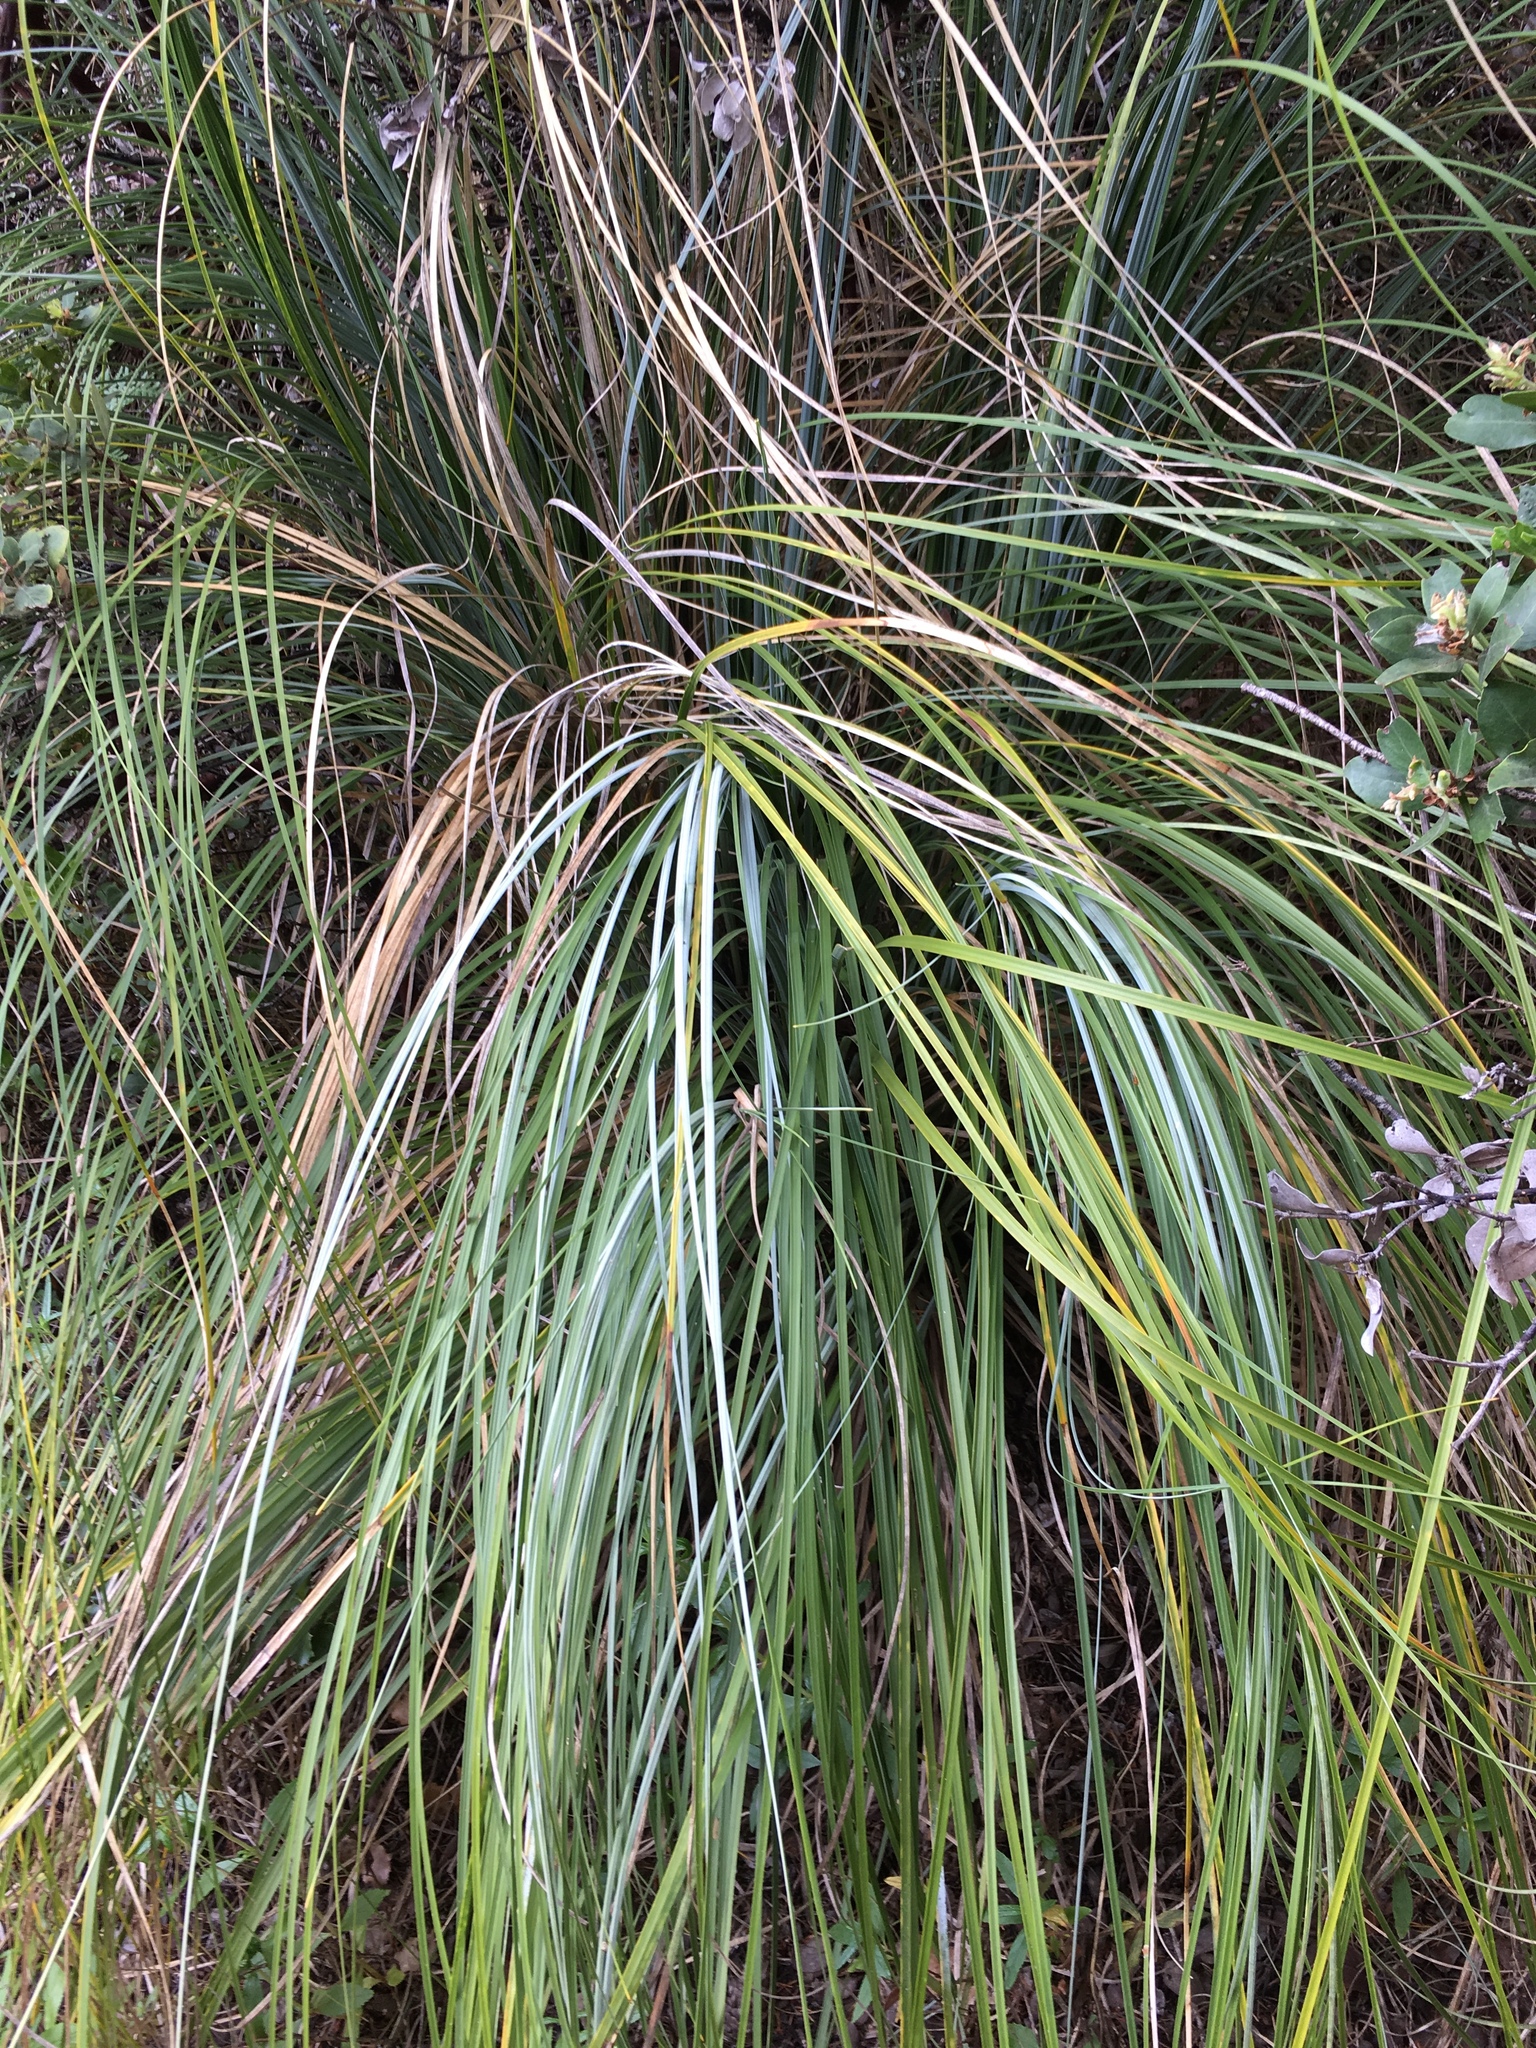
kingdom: Plantae
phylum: Tracheophyta
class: Liliopsida
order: Liliales
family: Melanthiaceae
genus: Xerophyllum
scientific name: Xerophyllum tenax
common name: Bear-grass
